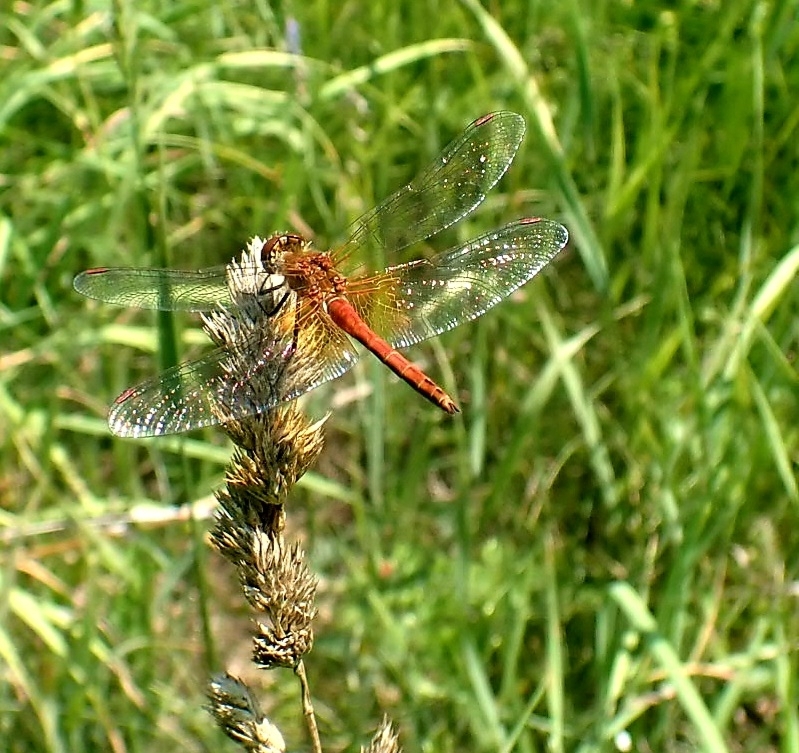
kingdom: Animalia
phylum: Arthropoda
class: Insecta
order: Odonata
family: Libellulidae
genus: Sympetrum
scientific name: Sympetrum flaveolum
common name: Yellow-winged darter
